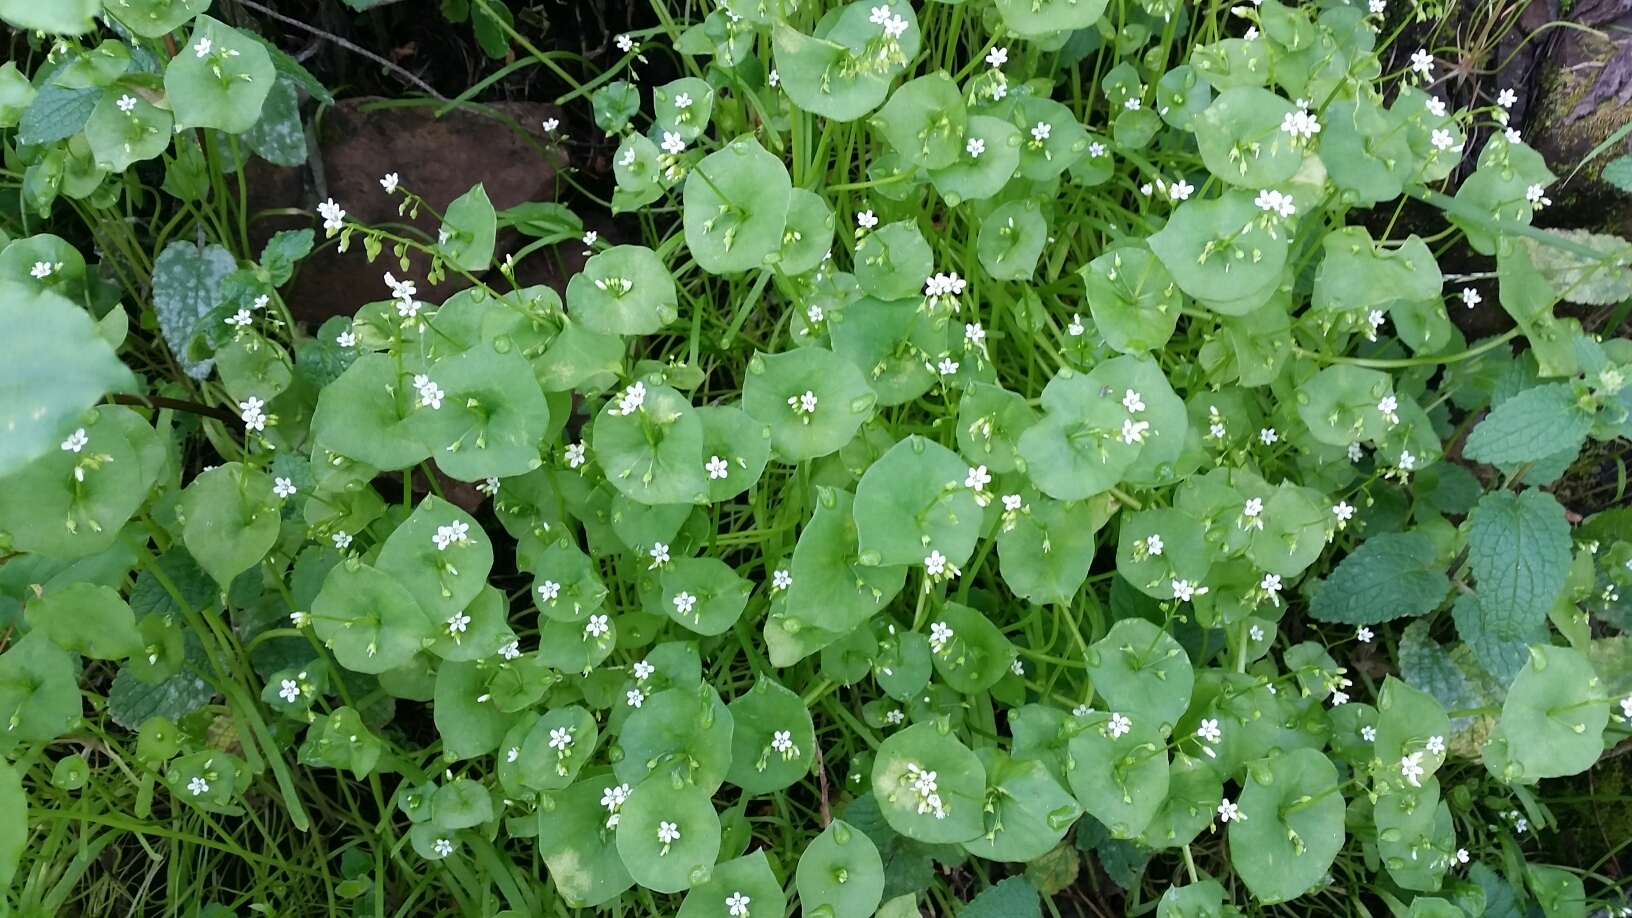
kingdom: Plantae
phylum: Tracheophyta
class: Magnoliopsida
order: Caryophyllales
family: Montiaceae
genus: Claytonia
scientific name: Claytonia perfoliata
